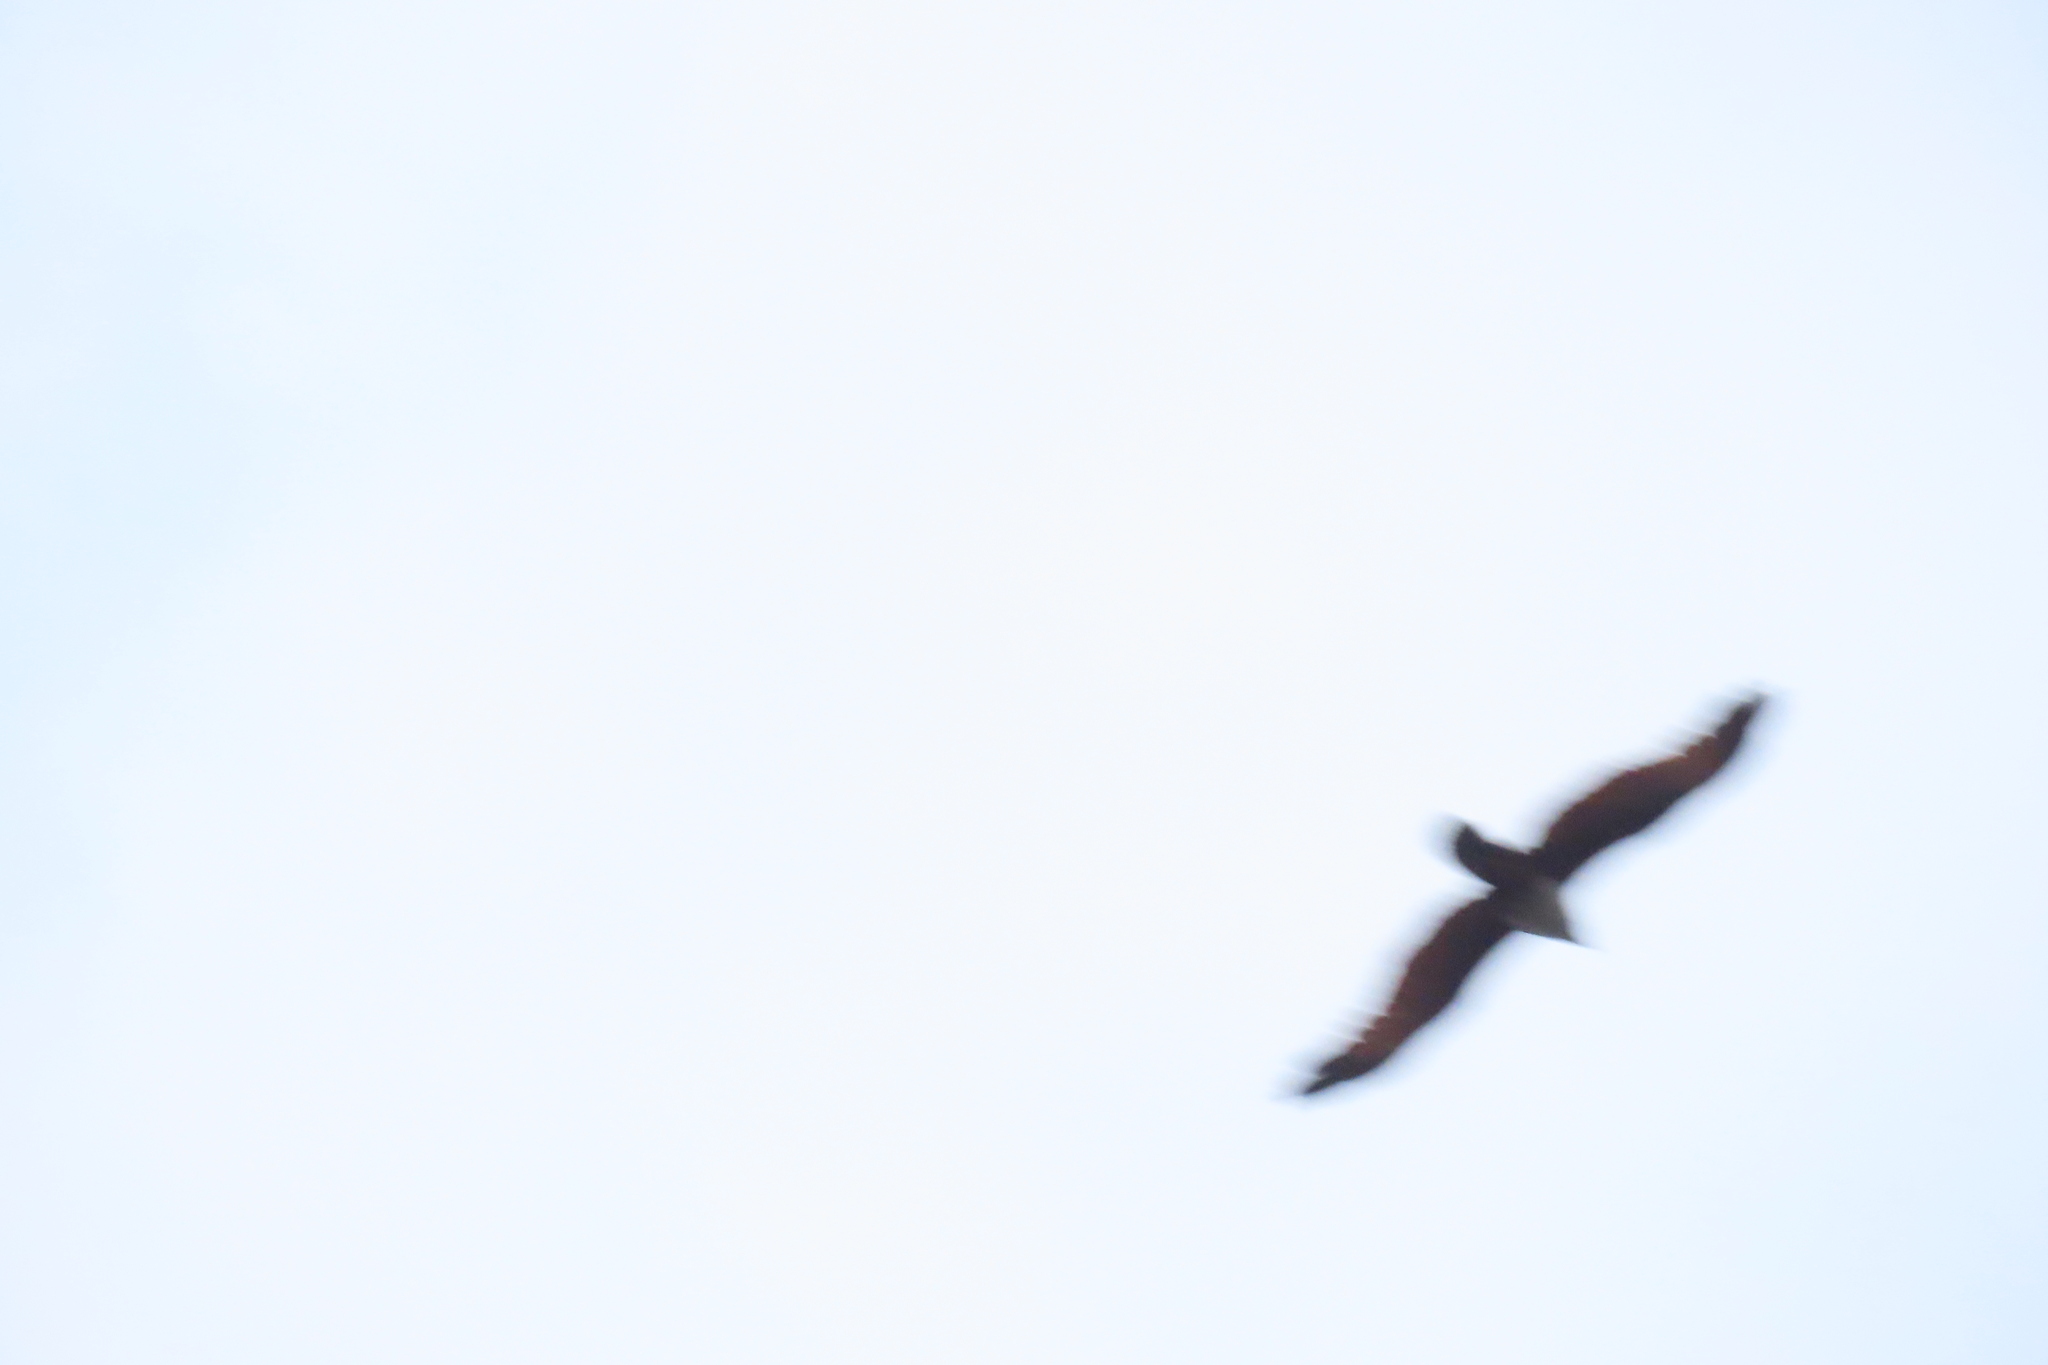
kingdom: Animalia
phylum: Chordata
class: Aves
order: Accipitriformes
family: Accipitridae
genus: Haliastur
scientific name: Haliastur indus
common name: Brahminy kite
